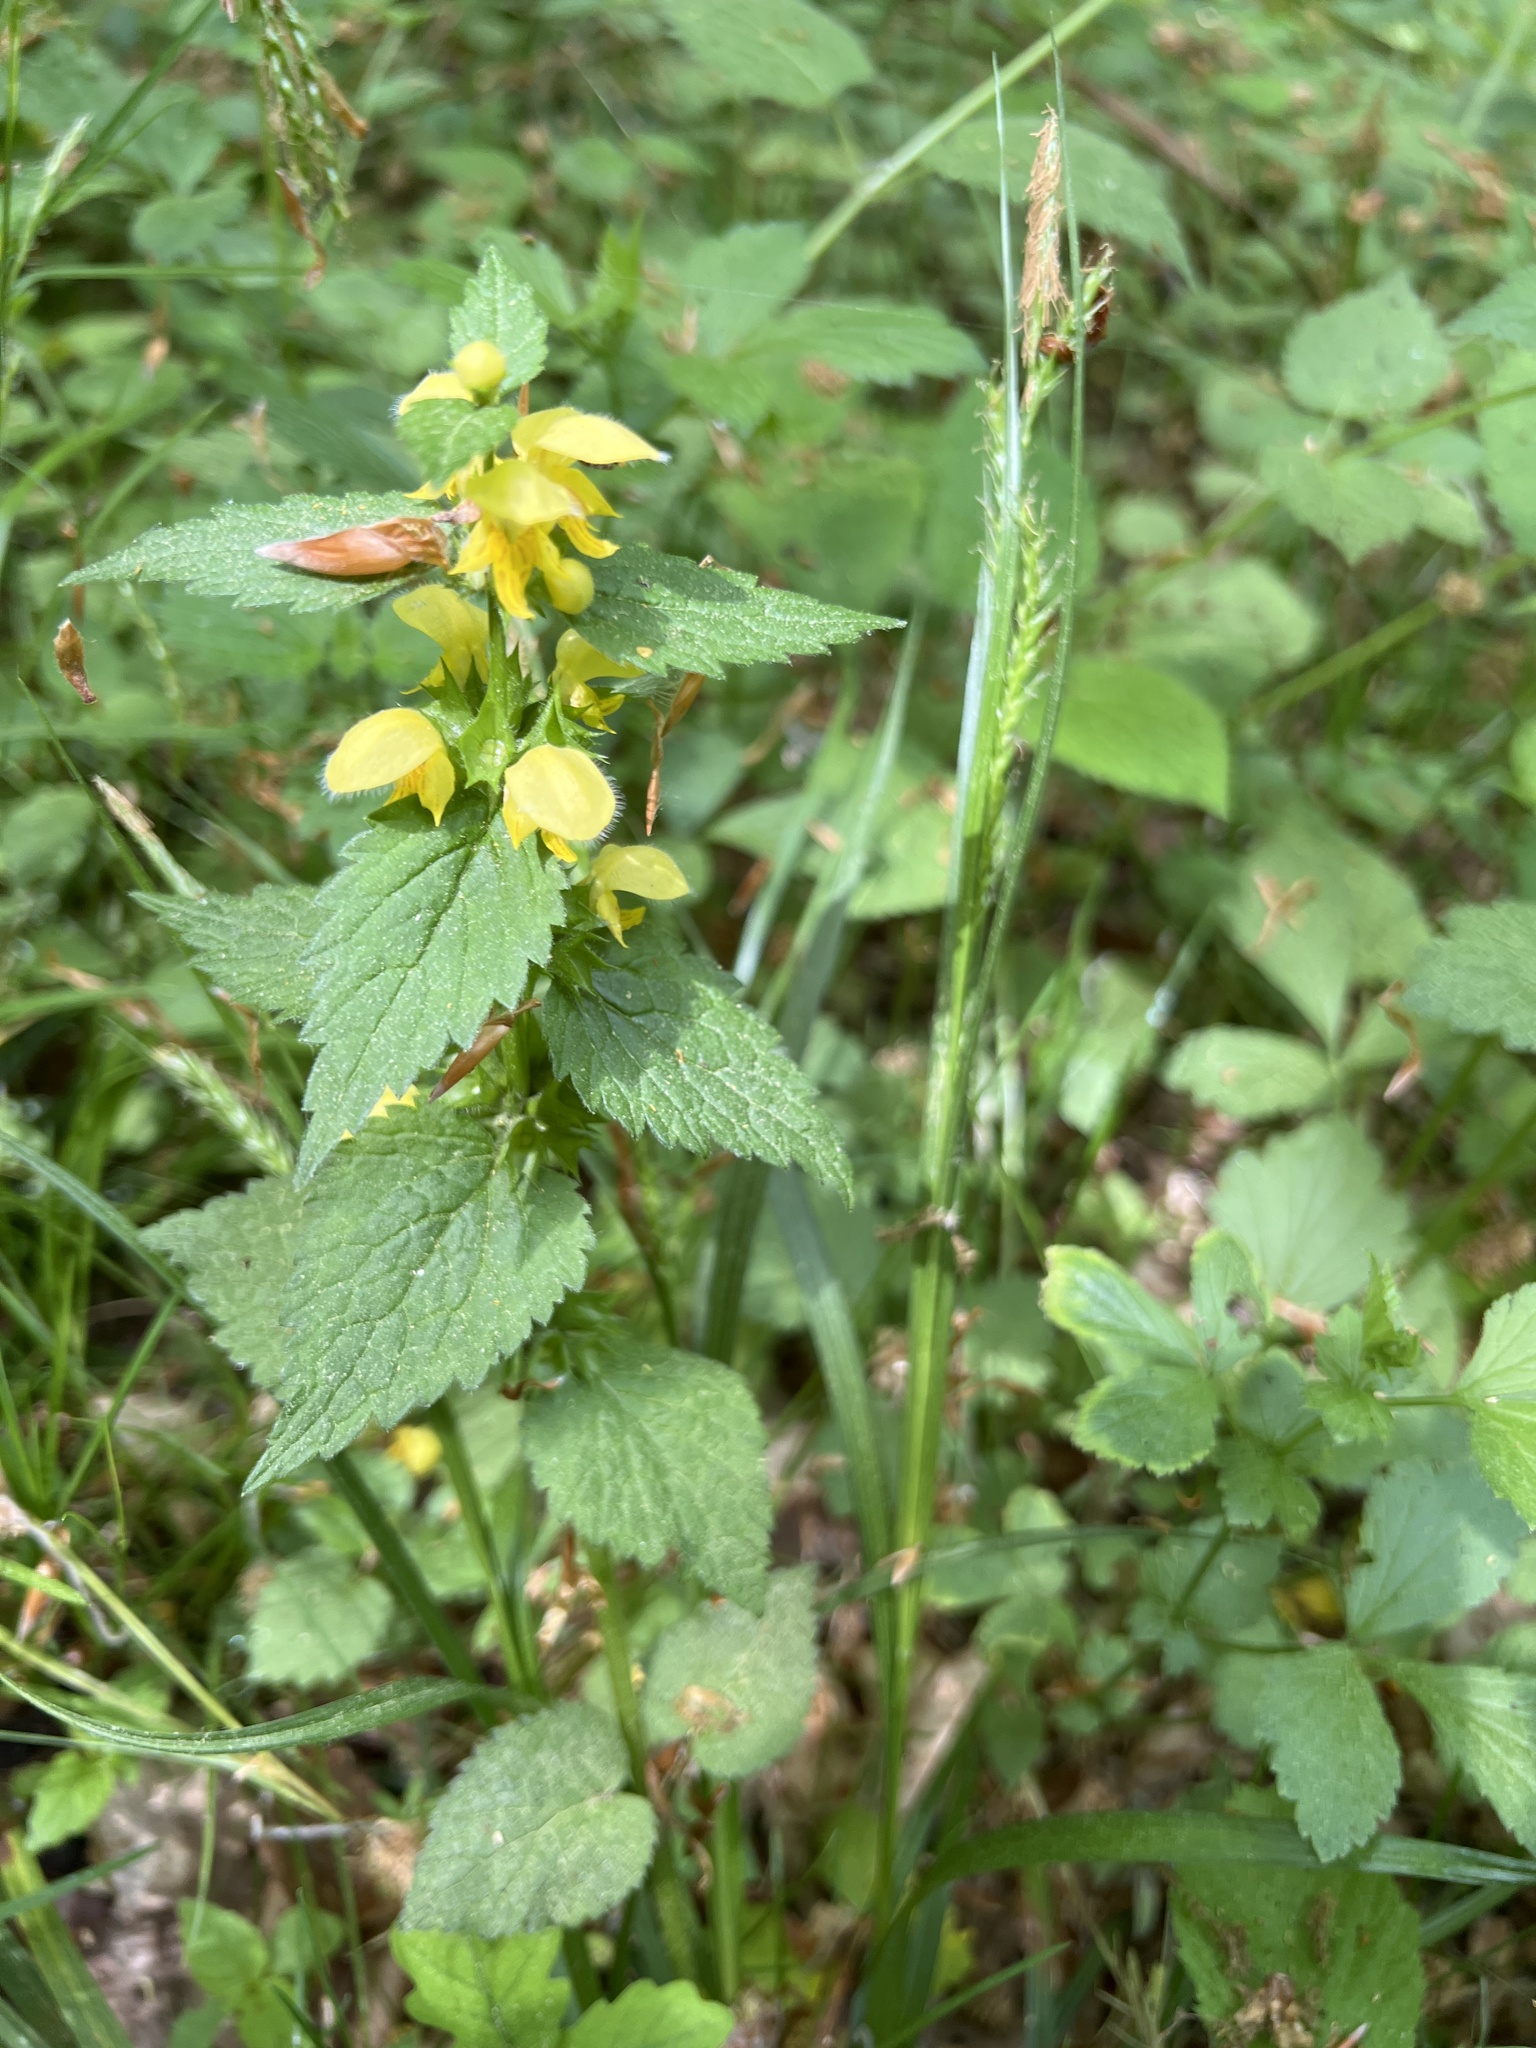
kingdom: Plantae
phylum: Tracheophyta
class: Magnoliopsida
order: Lamiales
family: Lamiaceae
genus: Lamium
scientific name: Lamium galeobdolon
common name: Yellow archangel
